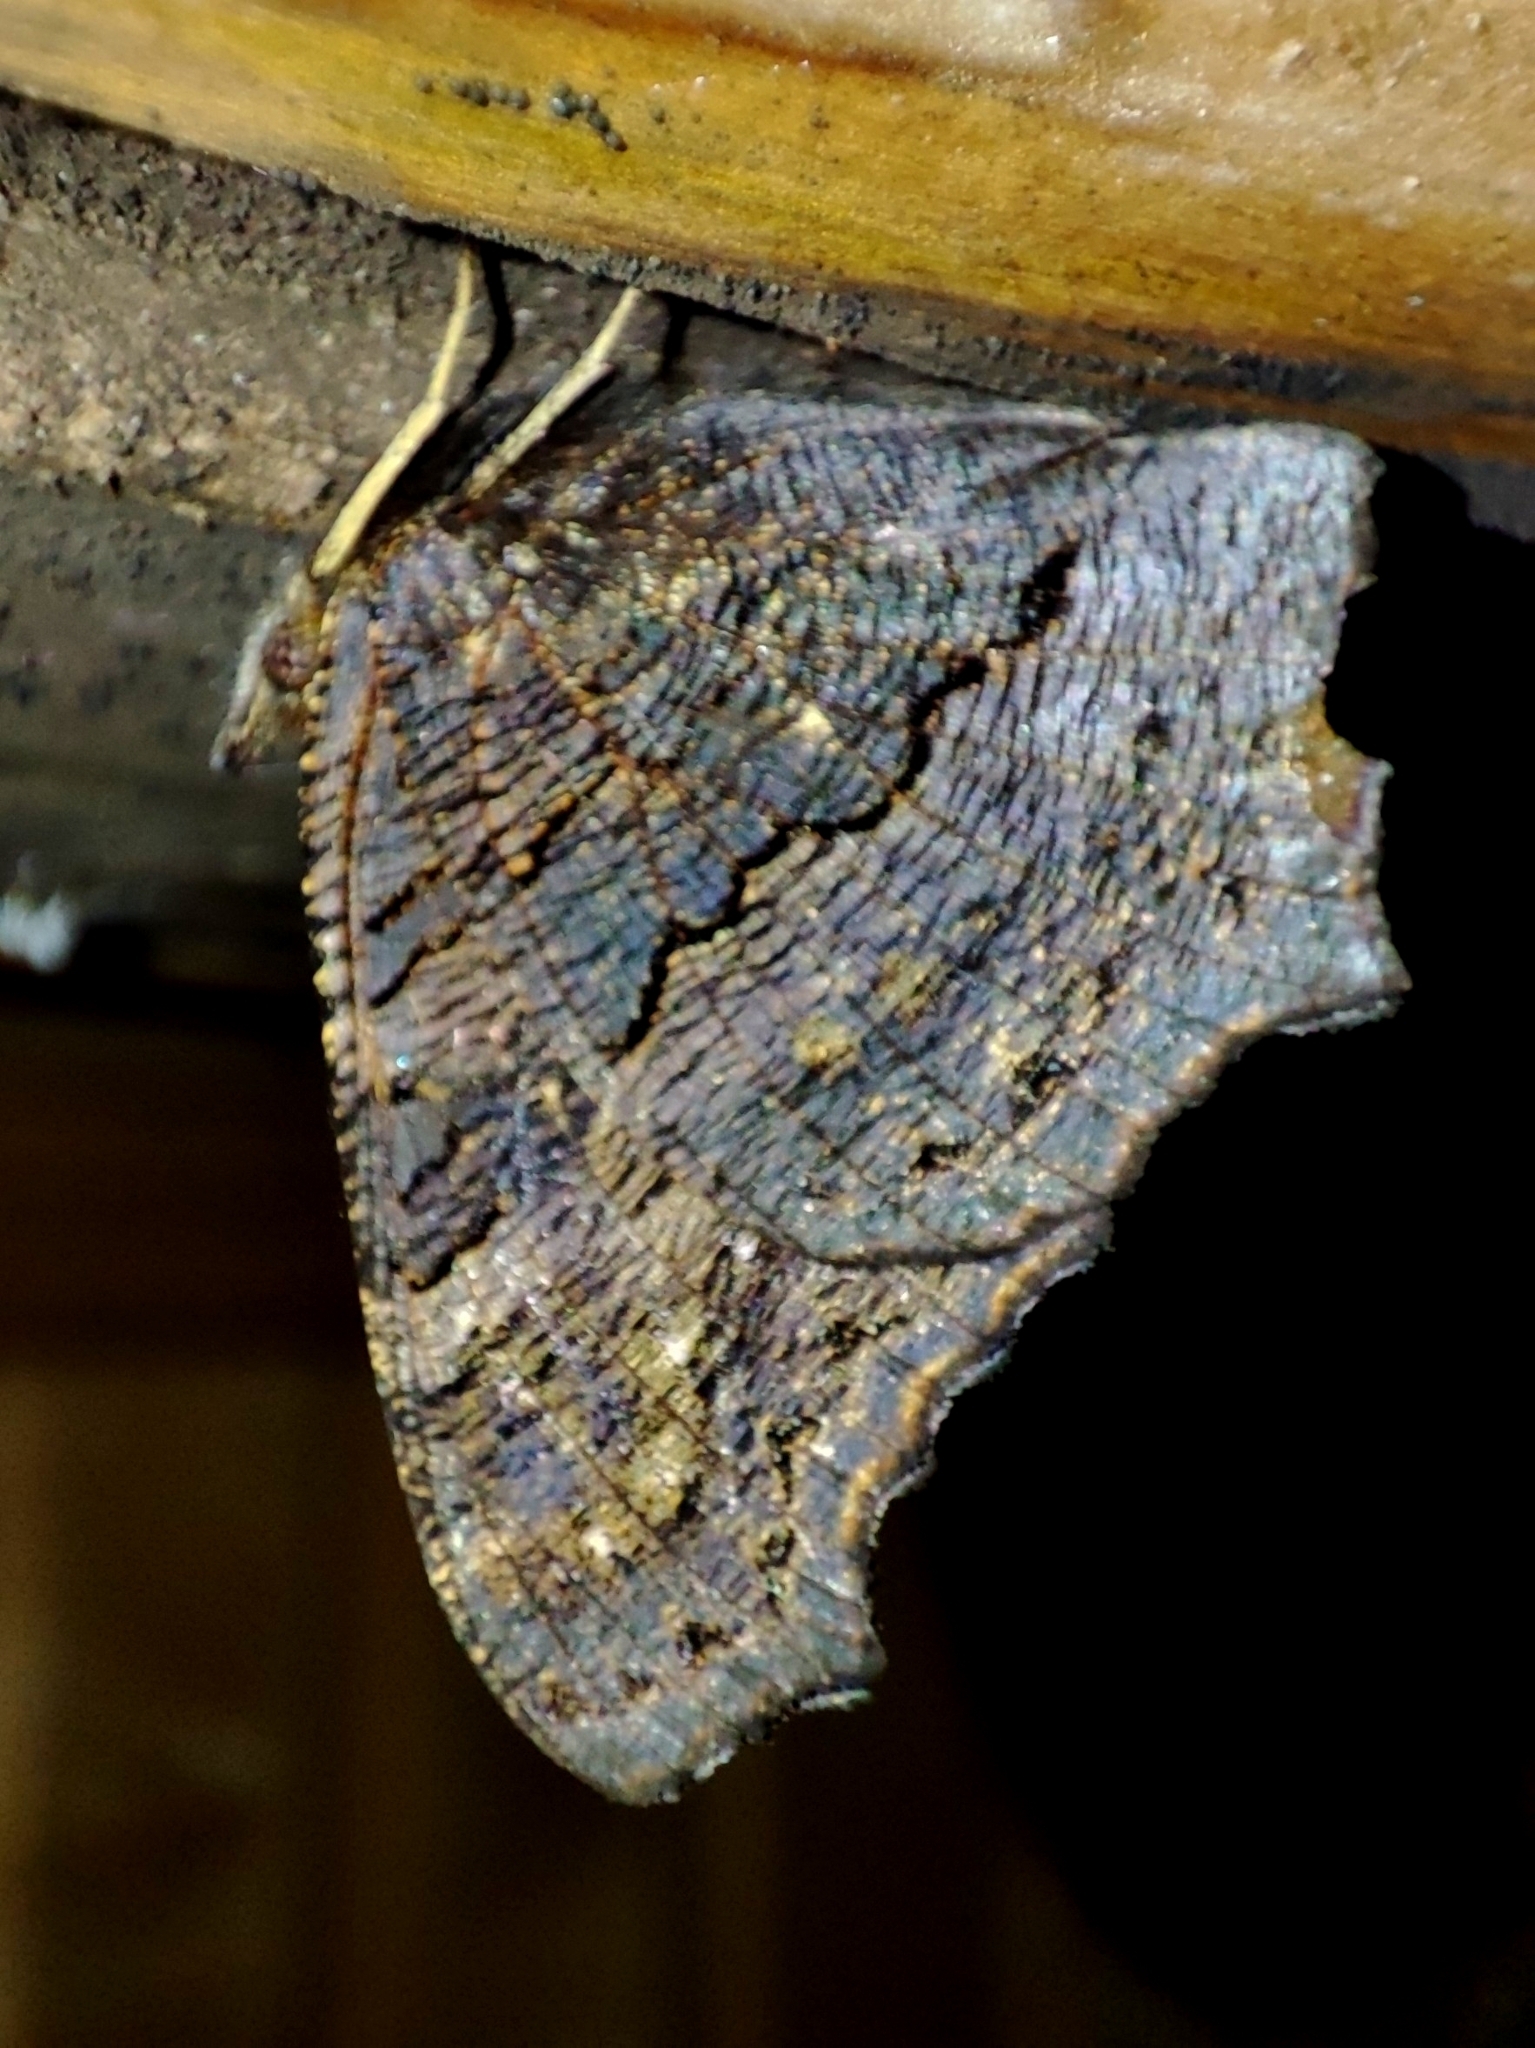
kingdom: Animalia
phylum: Arthropoda
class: Insecta
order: Lepidoptera
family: Nymphalidae
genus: Aglais
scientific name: Aglais io
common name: Peacock
